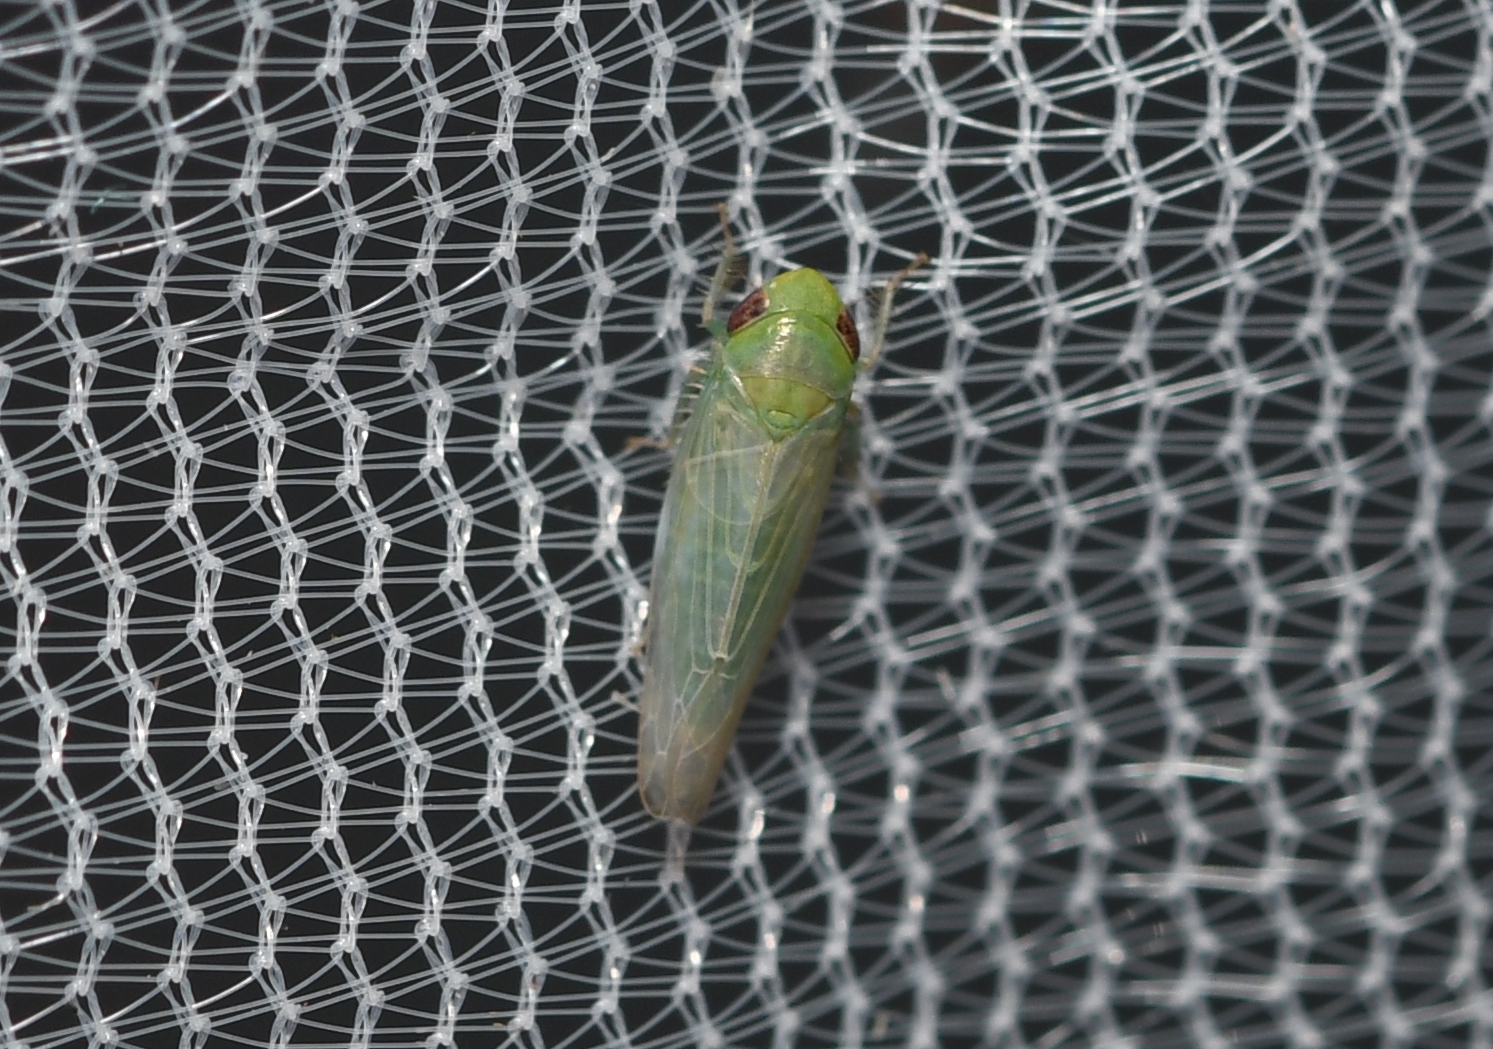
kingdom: Animalia
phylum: Arthropoda
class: Insecta
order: Hemiptera
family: Cicadellidae
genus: Doleranus
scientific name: Doleranus lucidus
